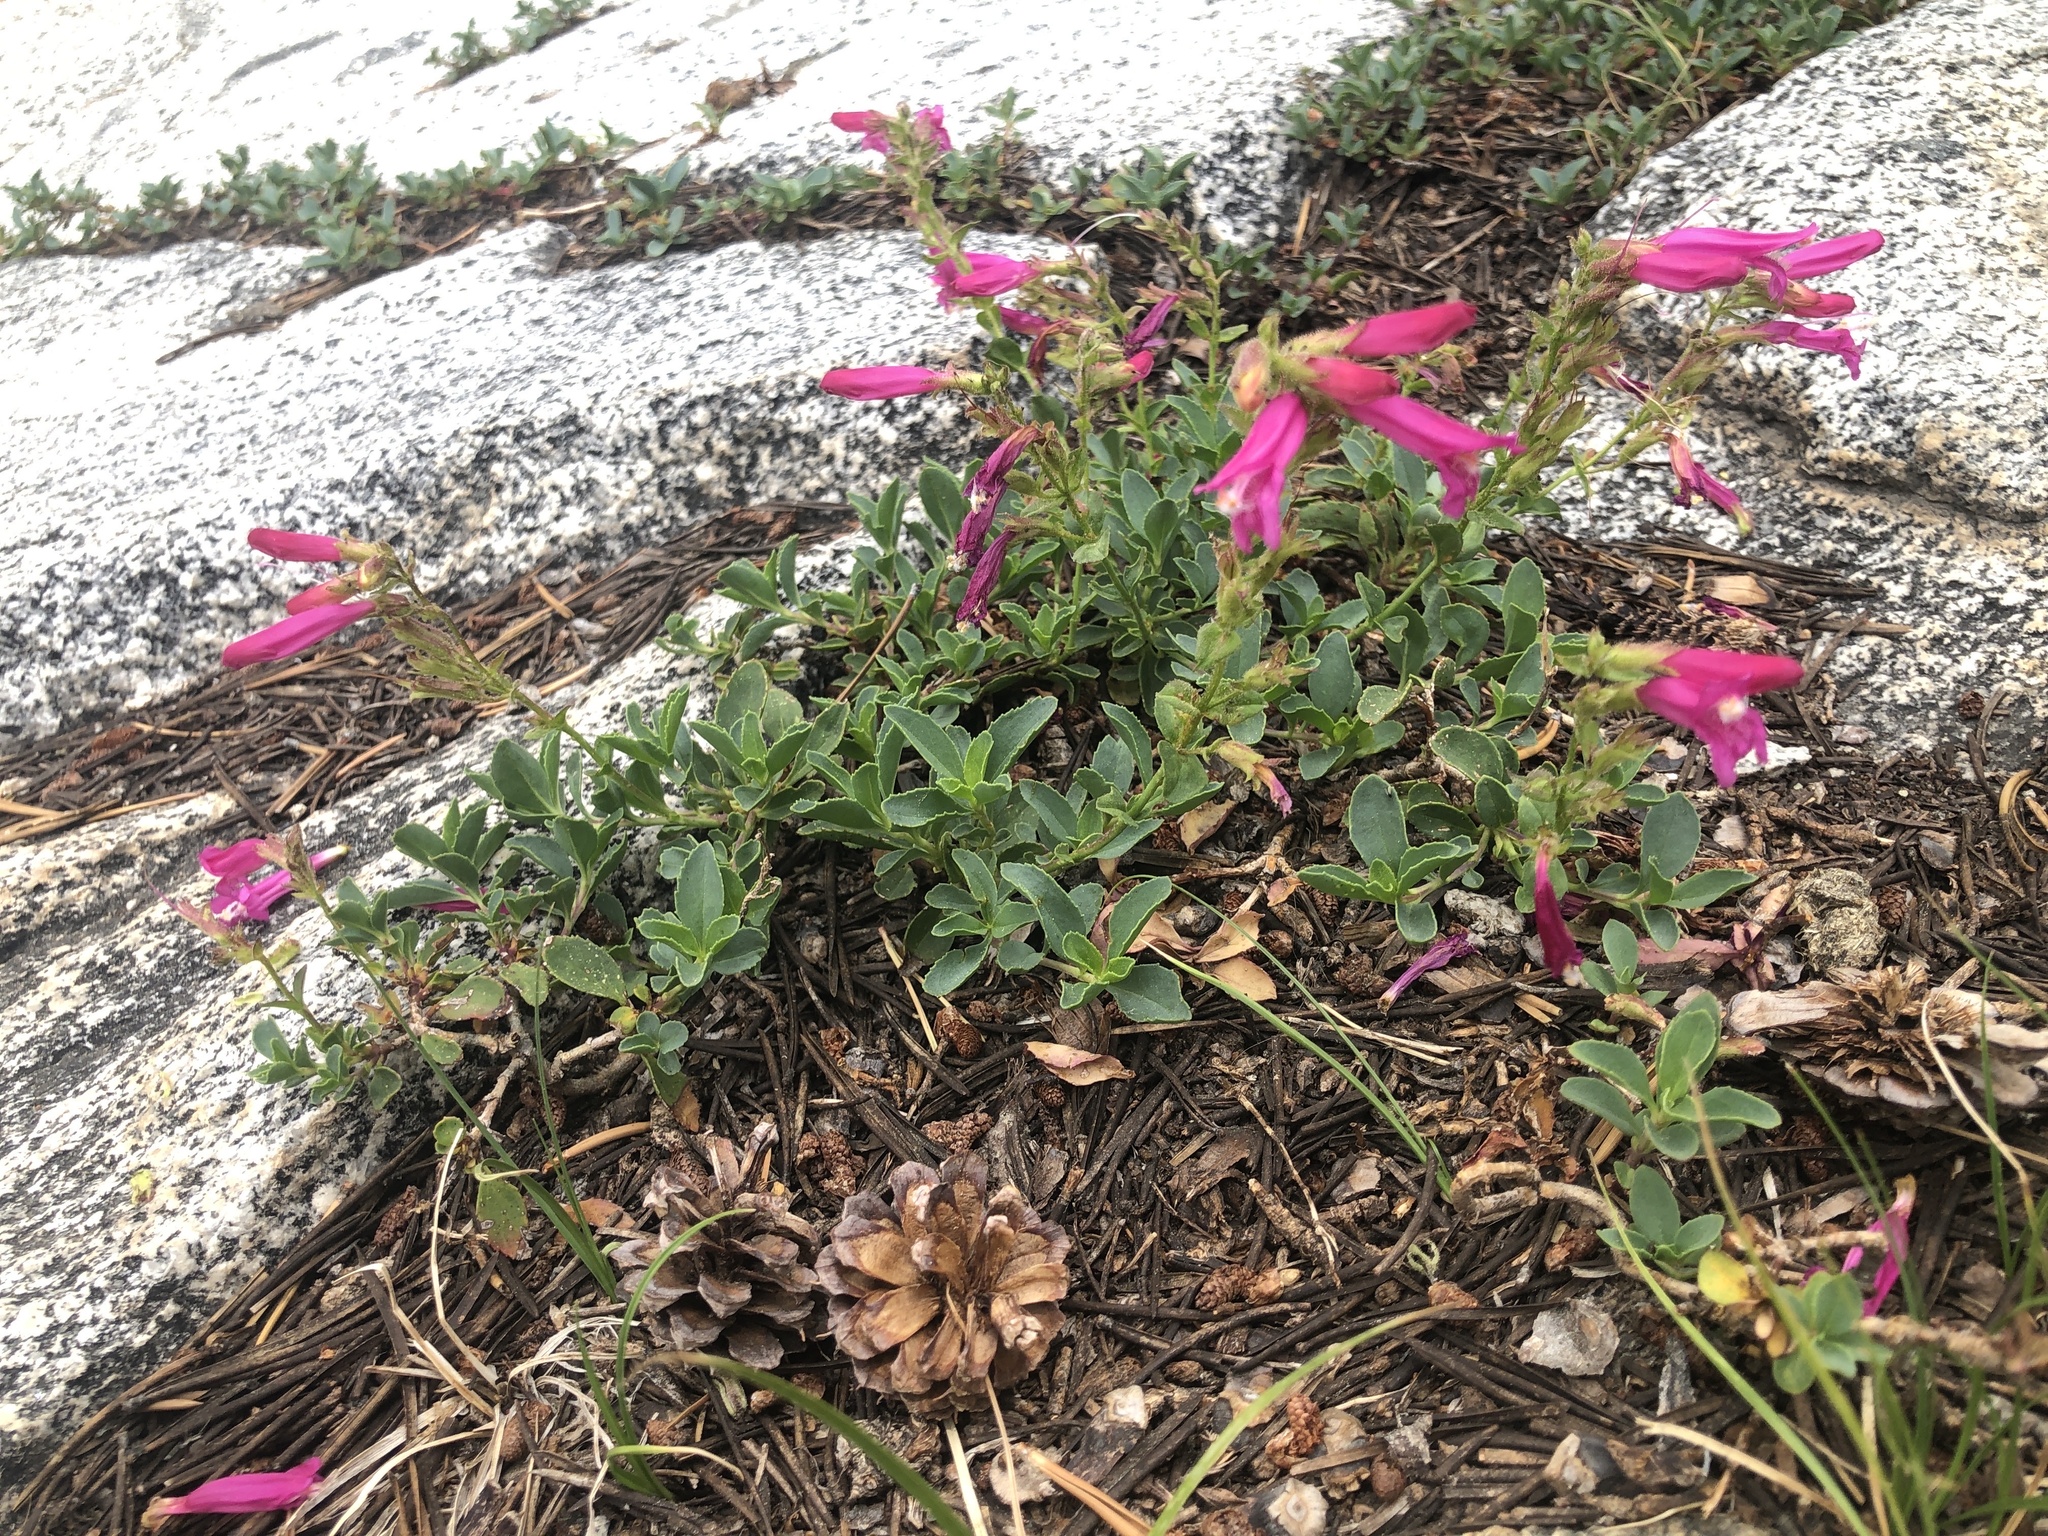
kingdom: Plantae
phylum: Tracheophyta
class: Magnoliopsida
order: Lamiales
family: Plantaginaceae
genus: Penstemon
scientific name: Penstemon newberryi
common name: Mountain-pride
